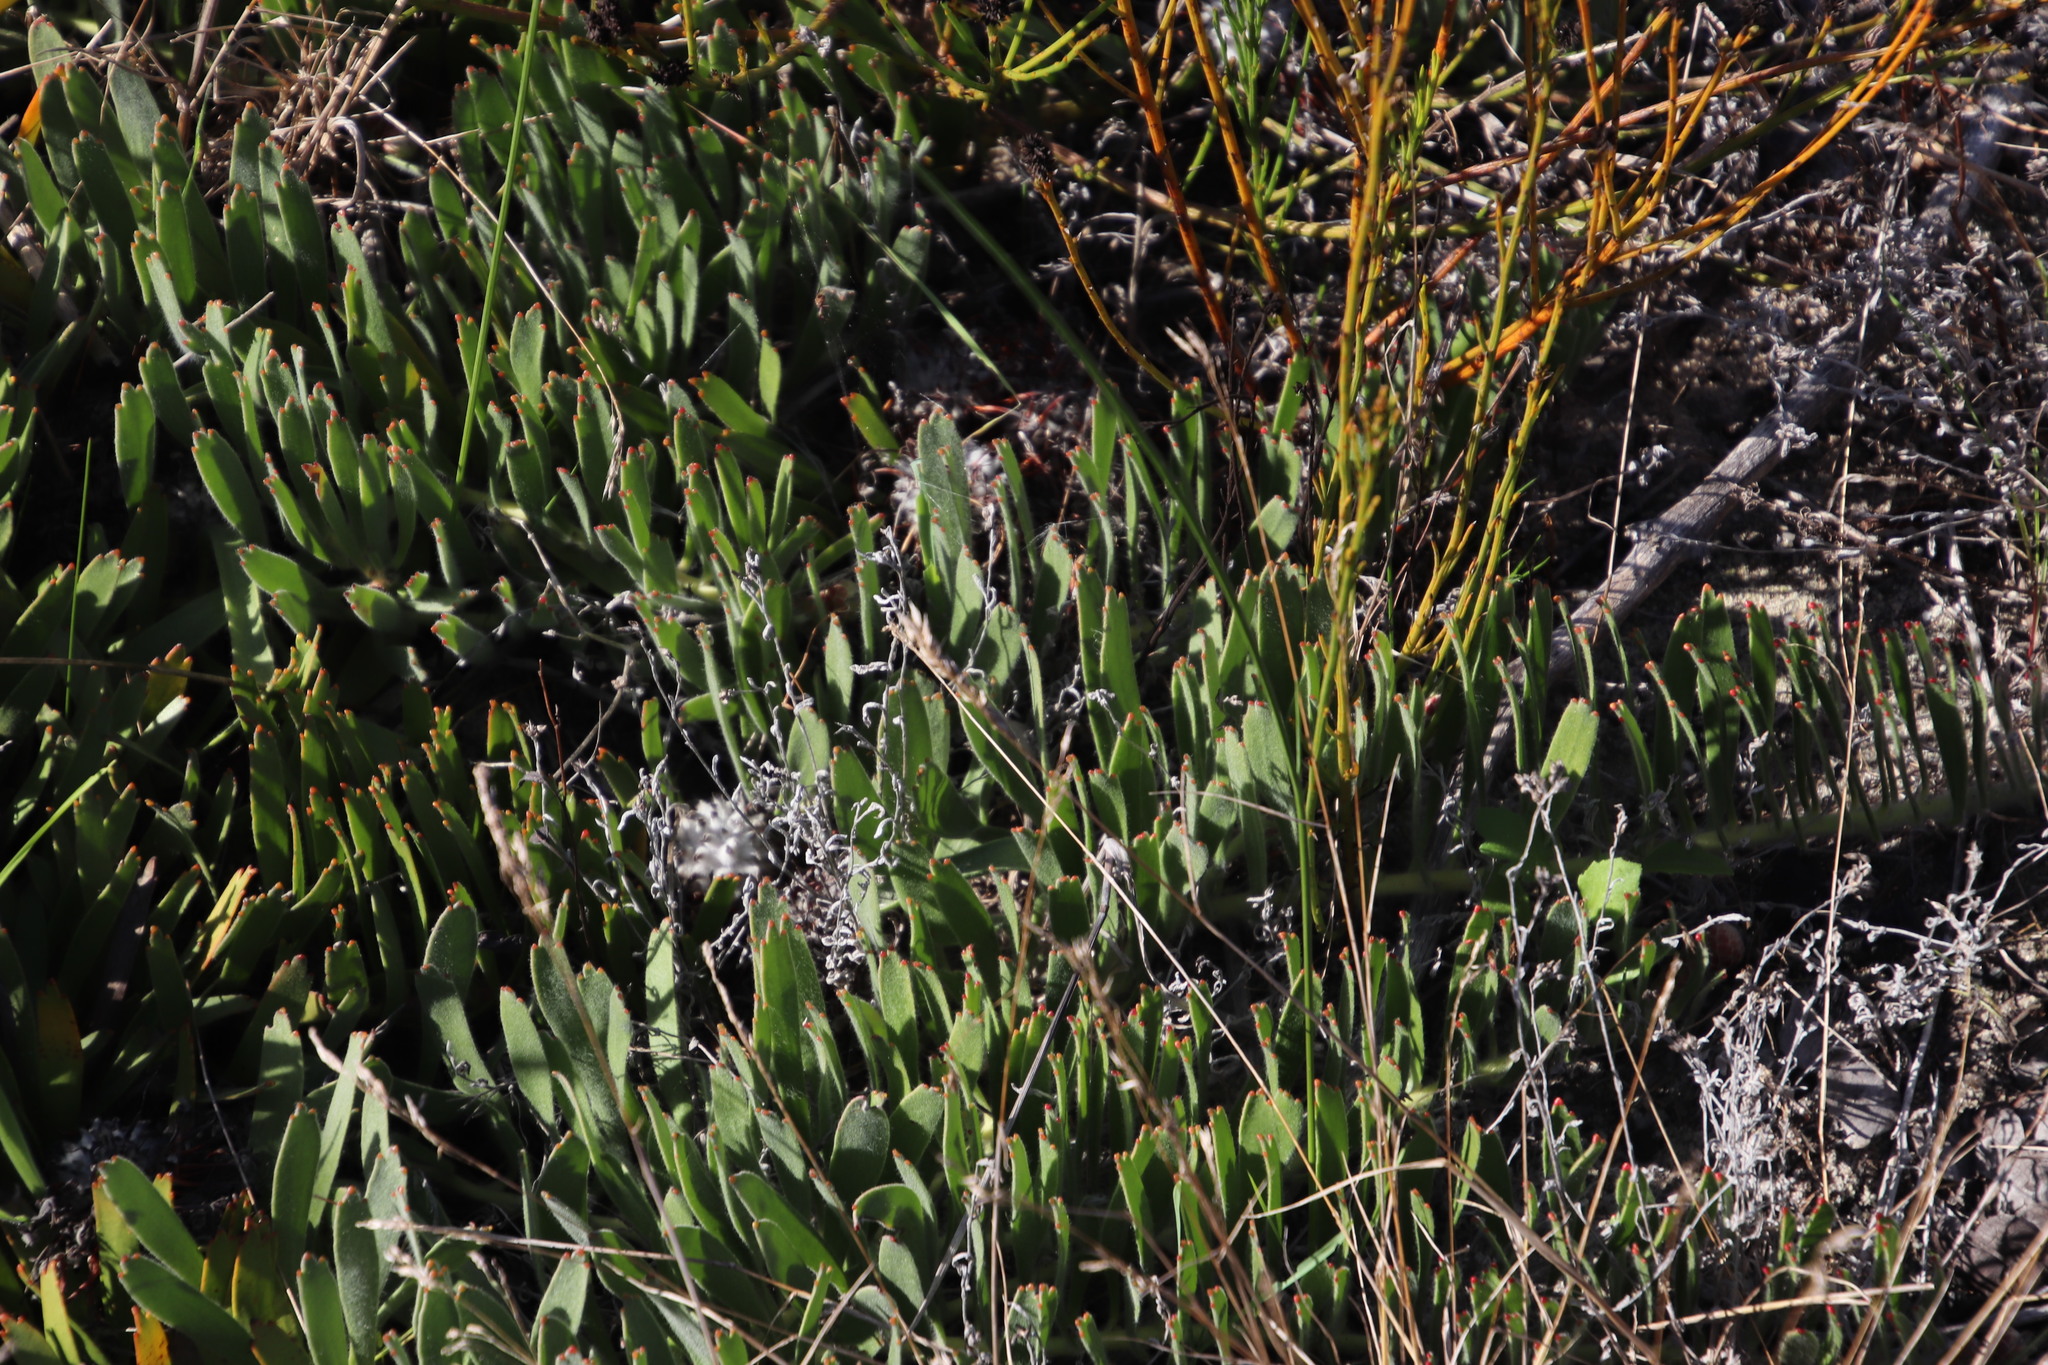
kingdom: Plantae
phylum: Tracheophyta
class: Magnoliopsida
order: Proteales
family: Proteaceae
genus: Leucospermum
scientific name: Leucospermum hypophyllocarpodendron
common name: Snakestem pincushion
